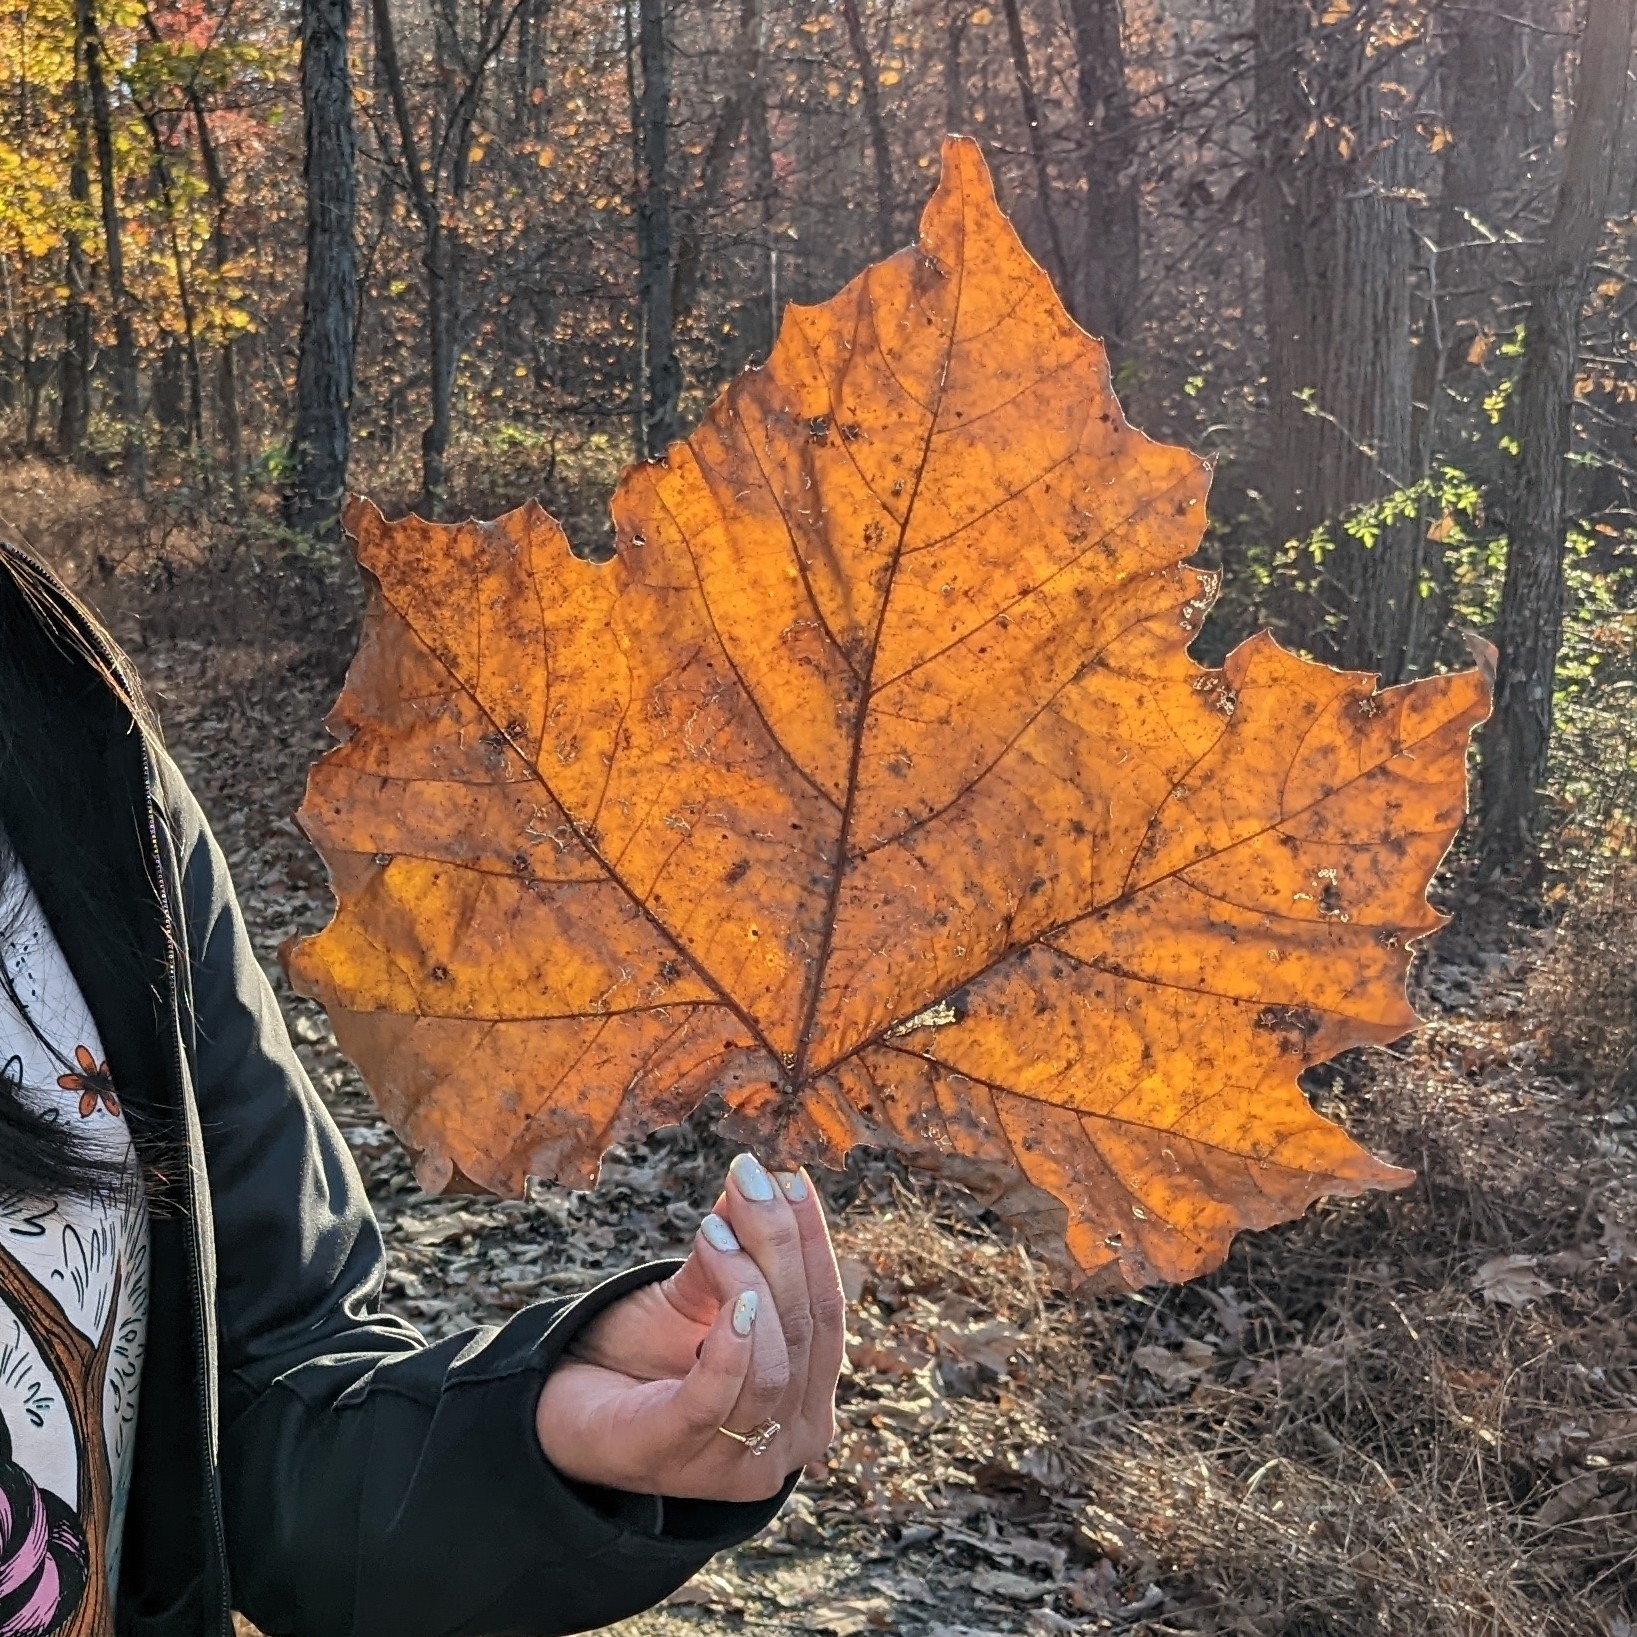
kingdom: Plantae
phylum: Tracheophyta
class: Magnoliopsida
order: Proteales
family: Platanaceae
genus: Platanus
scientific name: Platanus occidentalis
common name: American sycamore
